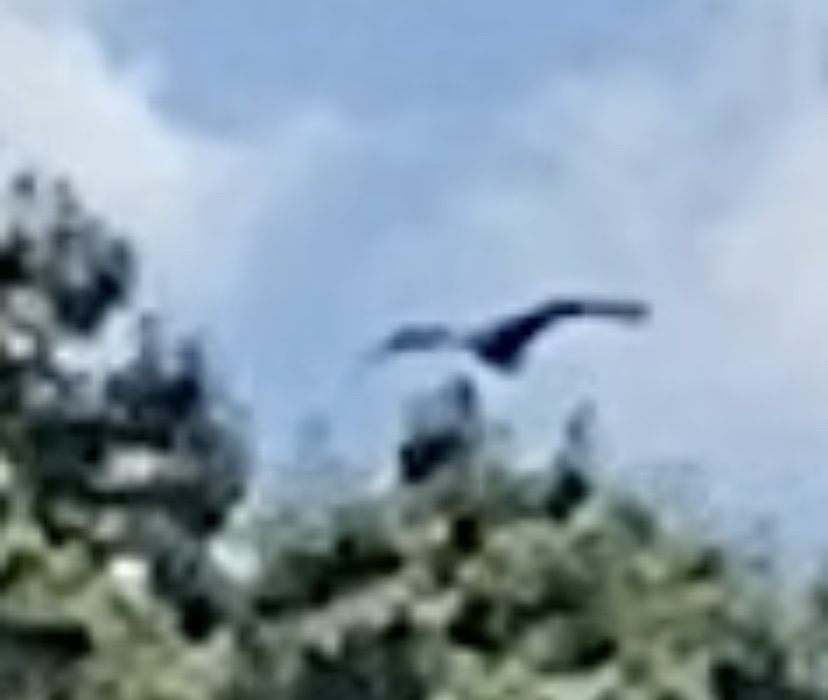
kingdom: Animalia
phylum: Chordata
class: Aves
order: Accipitriformes
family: Accipitridae
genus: Haliaeetus
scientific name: Haliaeetus leucocephalus
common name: Bald eagle
